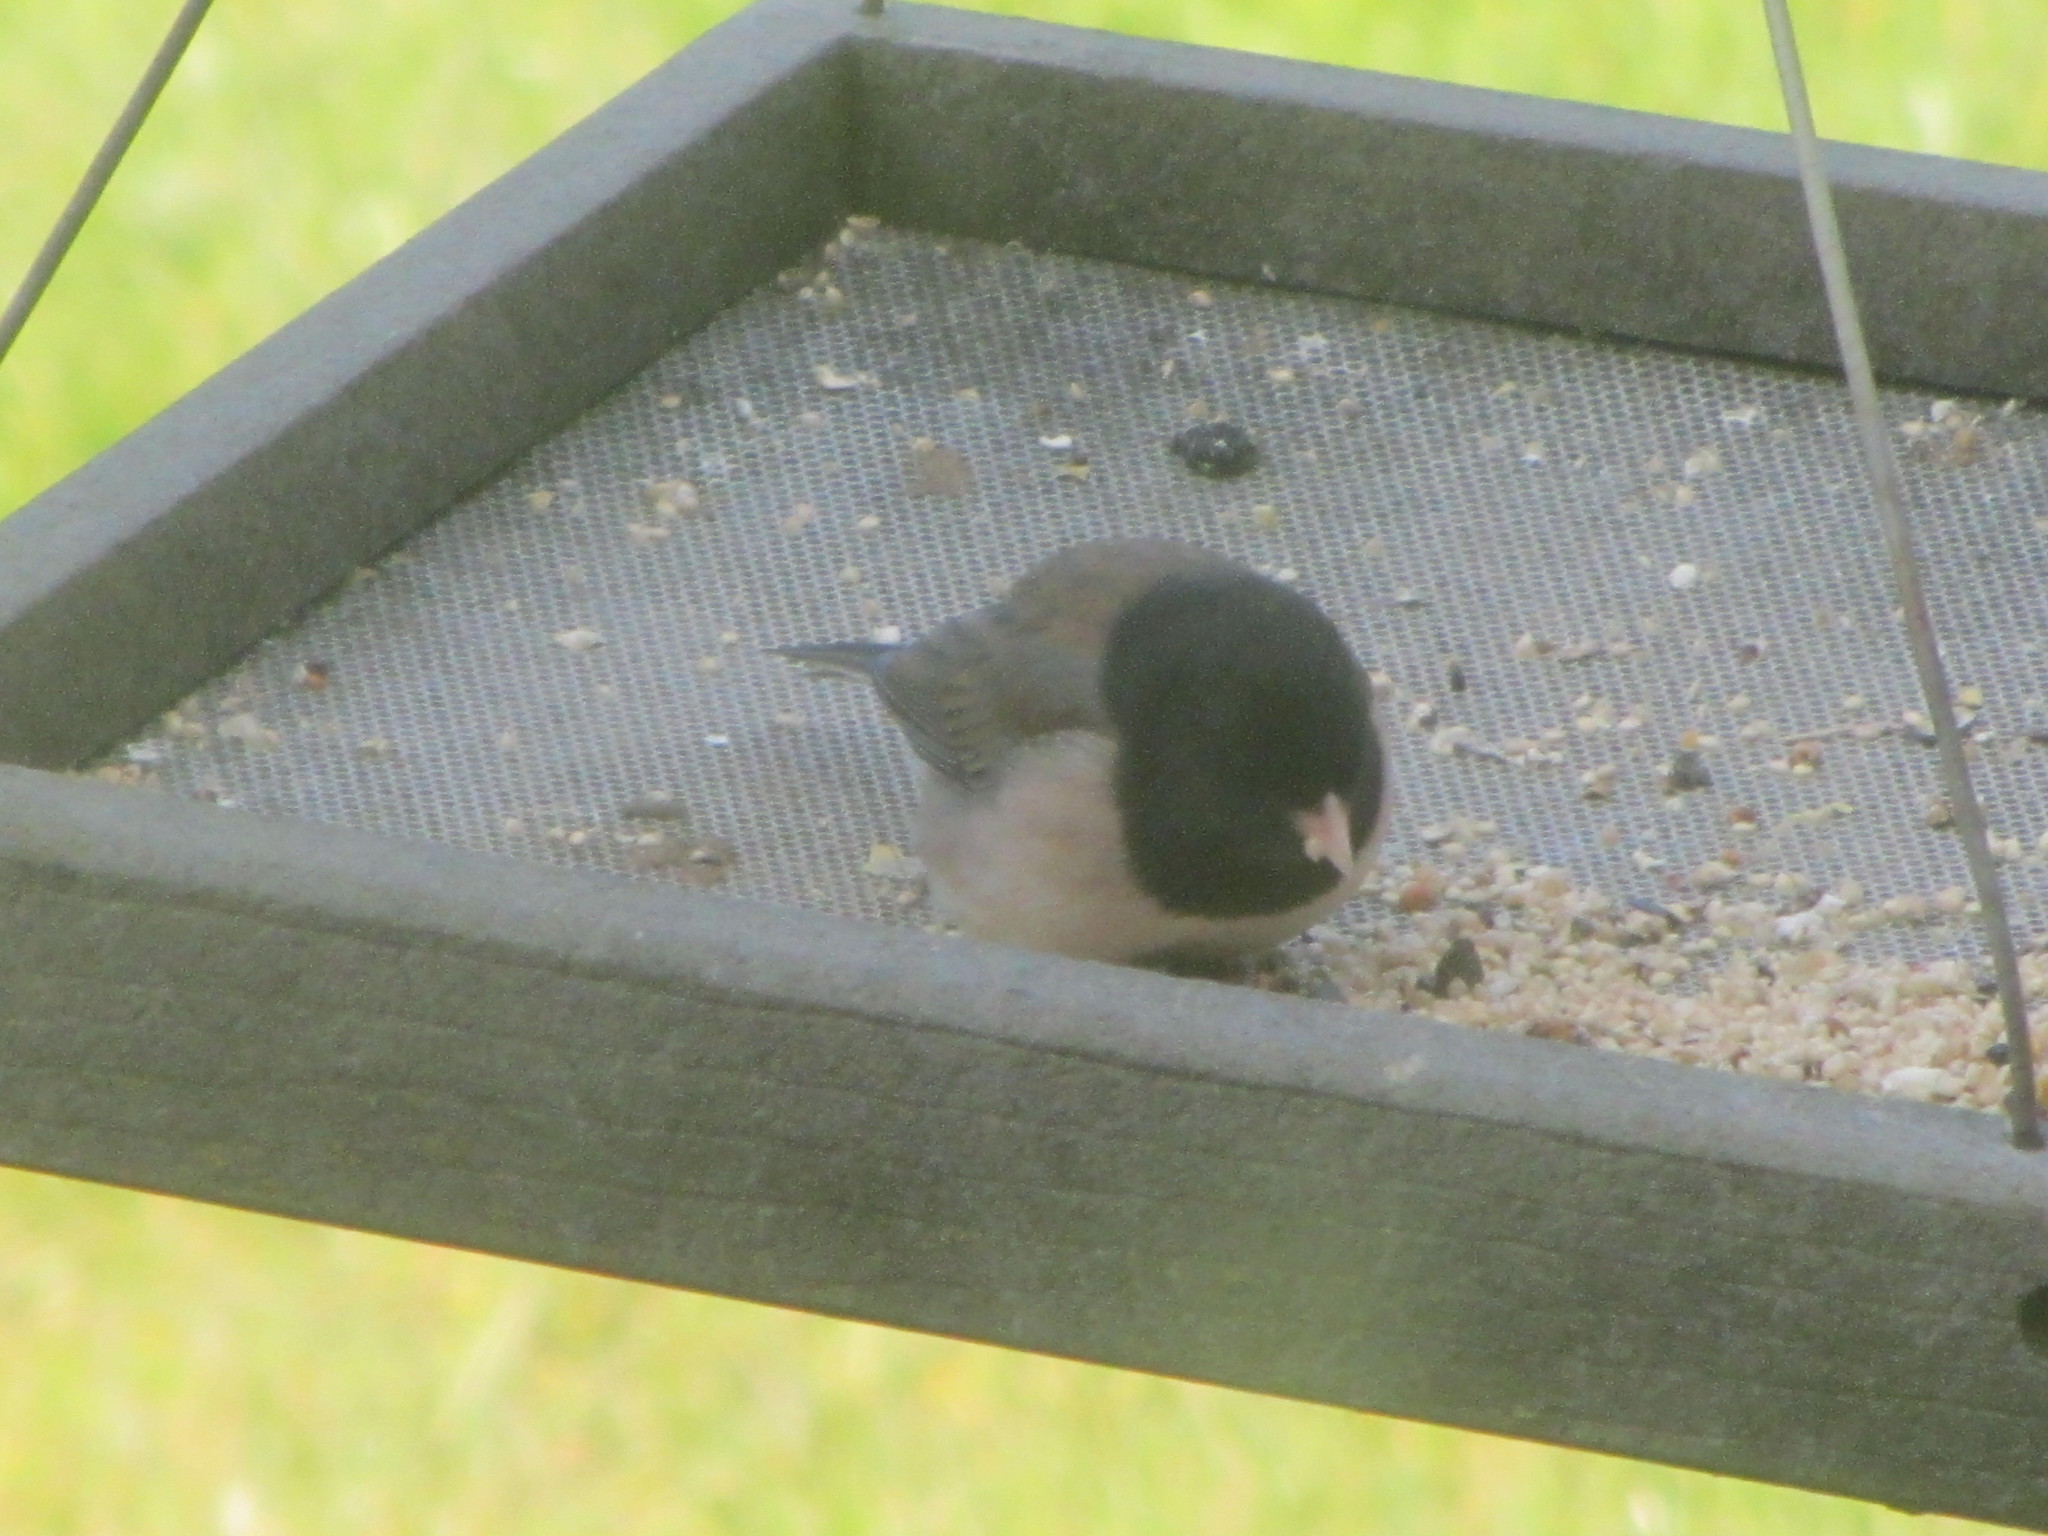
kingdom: Animalia
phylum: Chordata
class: Aves
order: Passeriformes
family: Passerellidae
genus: Junco
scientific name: Junco hyemalis
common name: Dark-eyed junco
